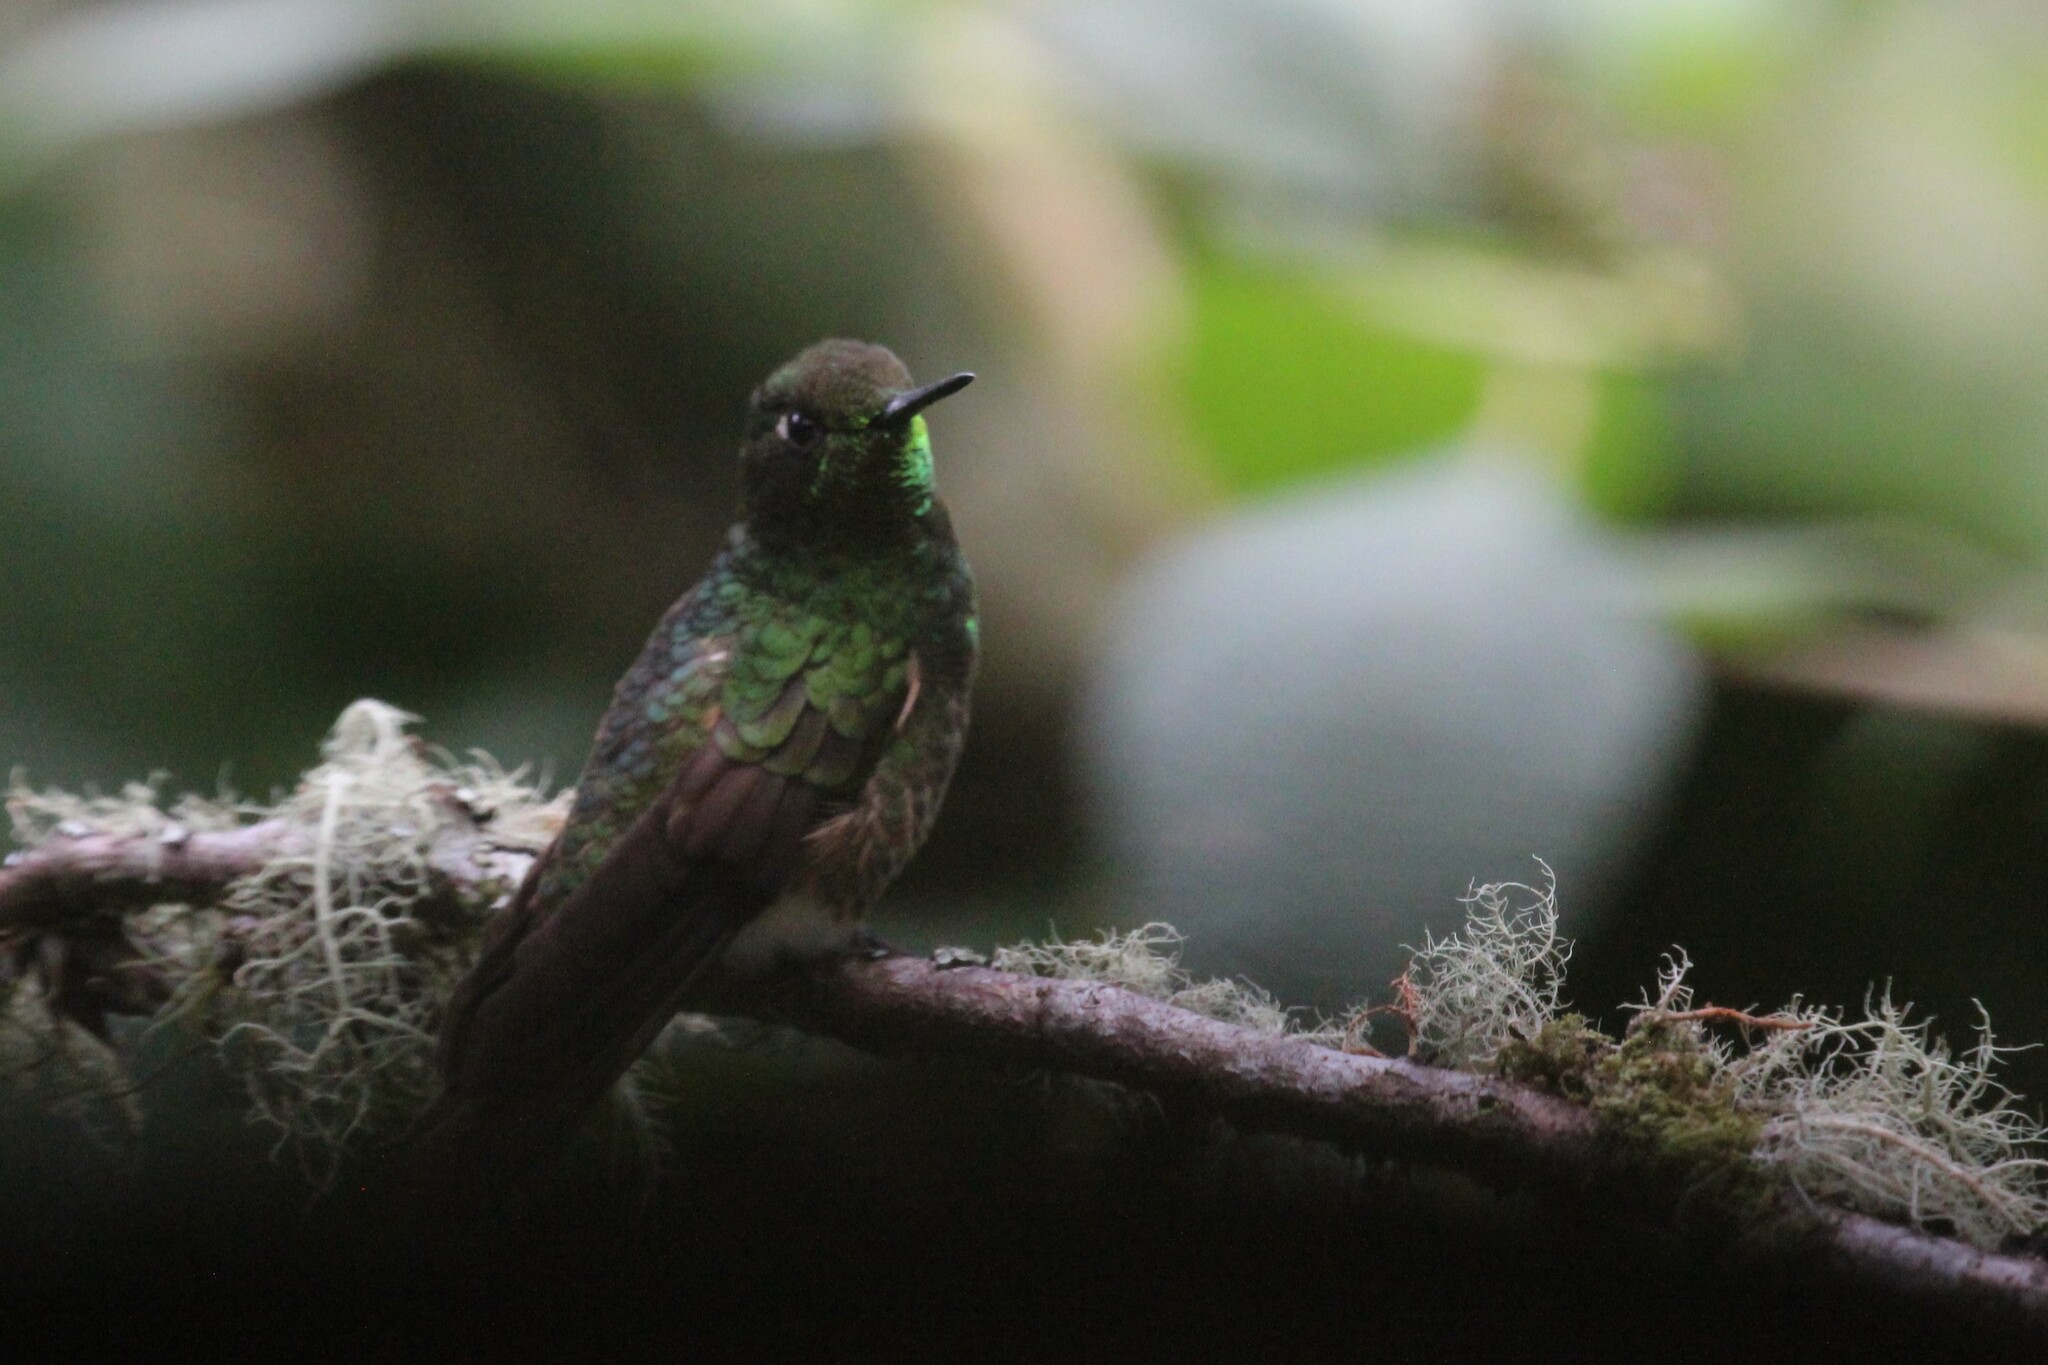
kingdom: Animalia
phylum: Chordata
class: Aves
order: Apodiformes
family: Trochilidae
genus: Boissonneaua
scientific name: Boissonneaua flavescens
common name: Buff-tailed coronet
